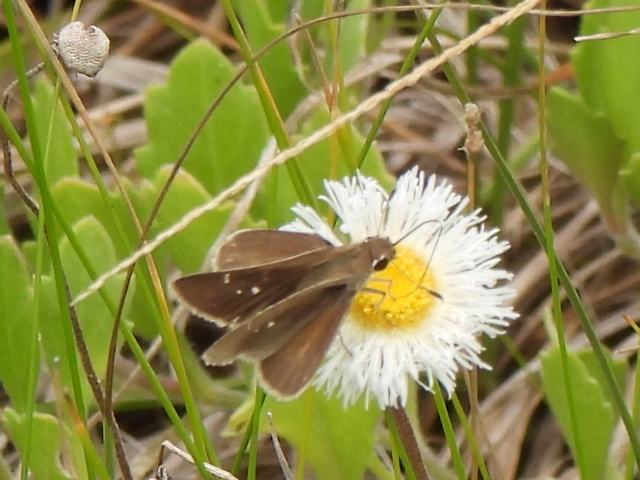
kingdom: Animalia
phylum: Arthropoda
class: Insecta
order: Lepidoptera
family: Hesperiidae
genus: Lerodea
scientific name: Lerodea eufala
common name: Eufala skipper
